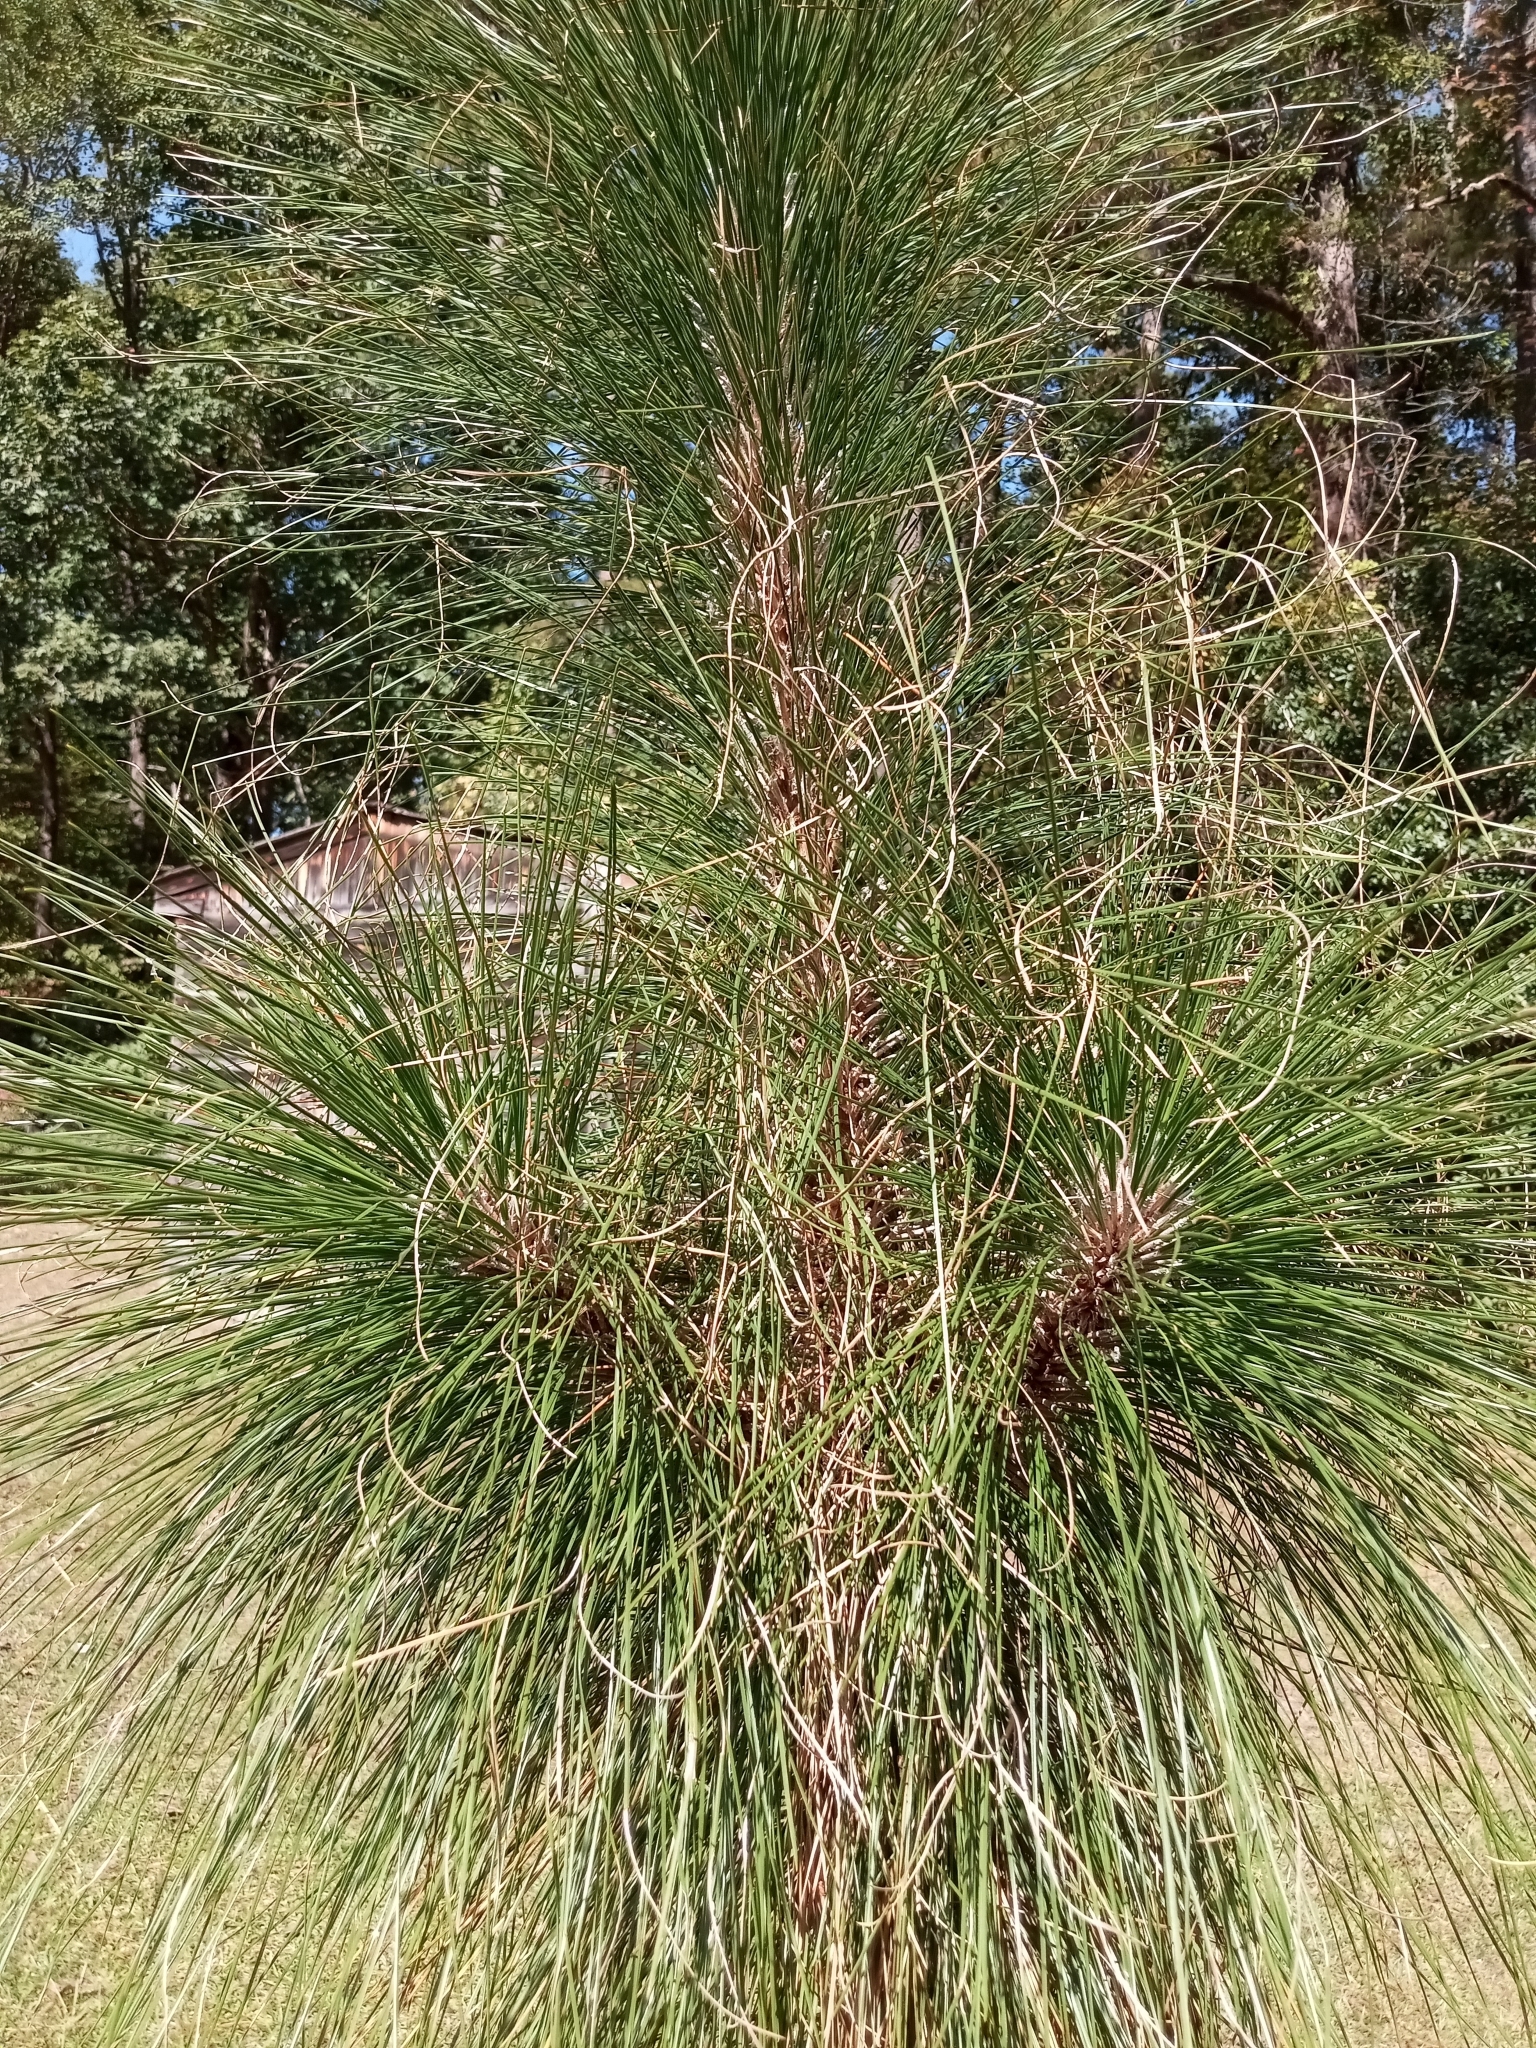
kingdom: Plantae
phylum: Tracheophyta
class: Pinopsida
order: Pinales
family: Pinaceae
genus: Pinus
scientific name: Pinus palustris
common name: Longleaf pine
